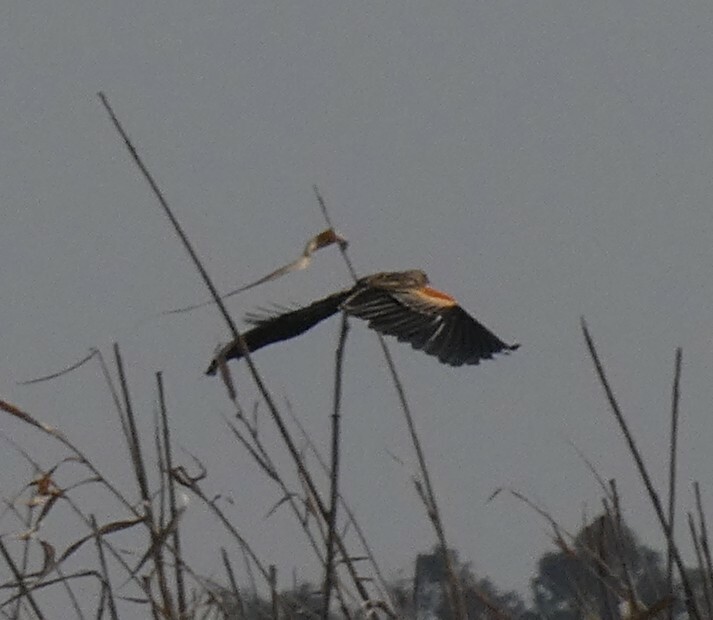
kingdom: Animalia
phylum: Chordata
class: Aves
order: Passeriformes
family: Ploceidae
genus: Euplectes
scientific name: Euplectes progne
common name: Long-tailed widowbird
